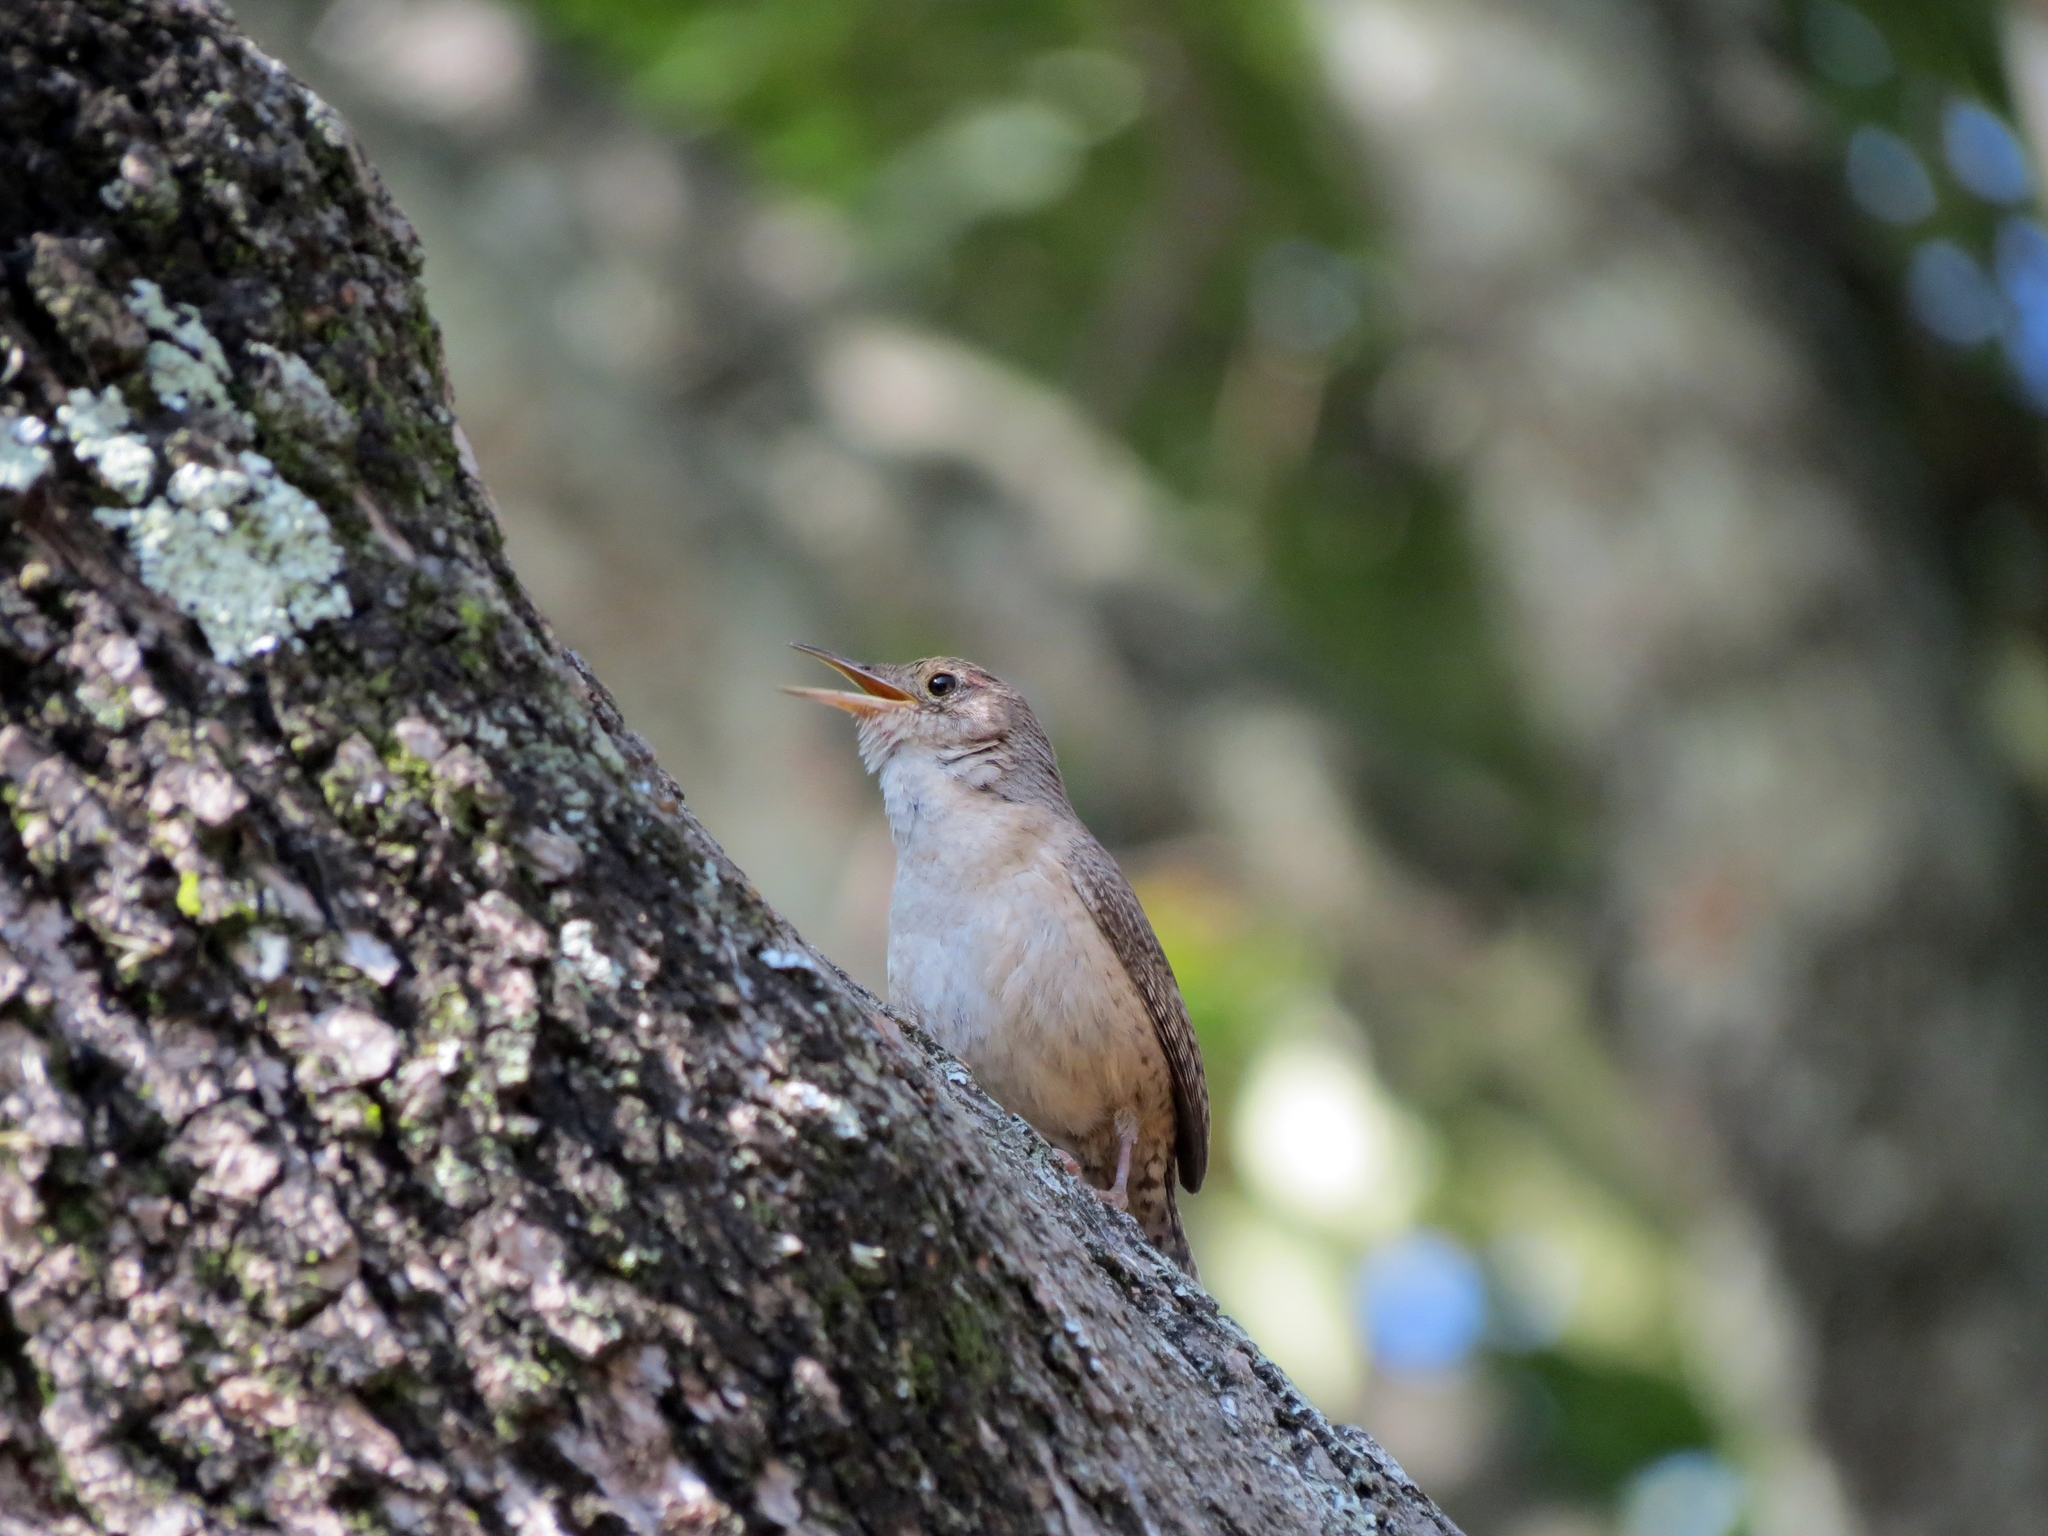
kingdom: Animalia
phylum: Chordata
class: Aves
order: Passeriformes
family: Troglodytidae
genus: Troglodytes
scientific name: Troglodytes aedon
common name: House wren
